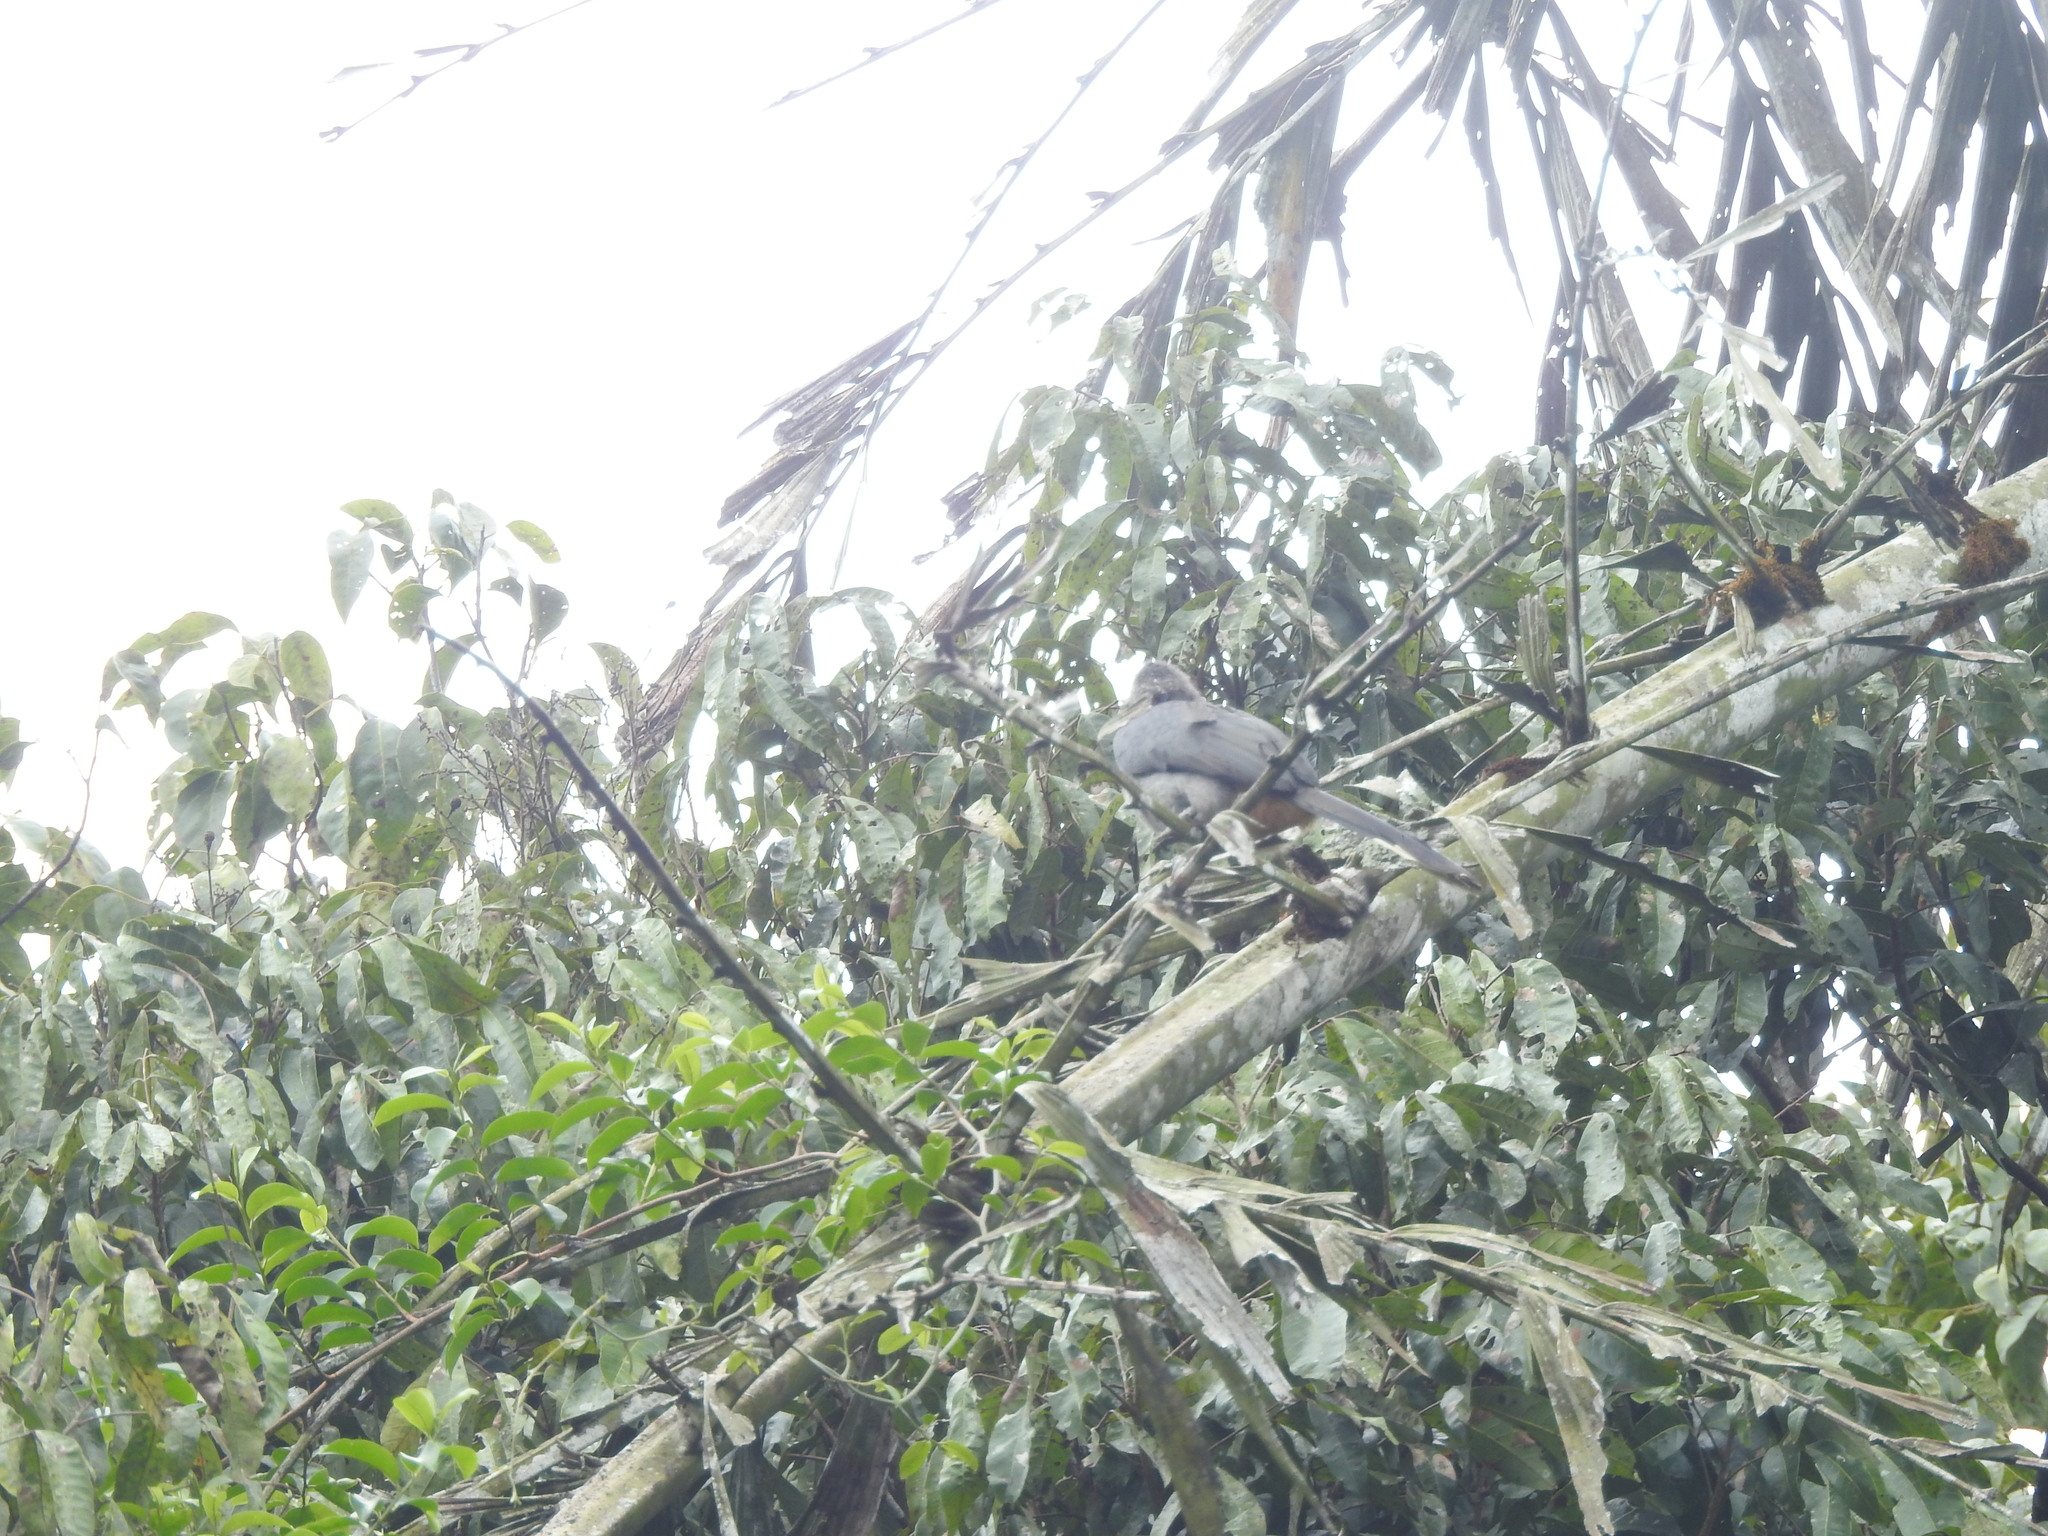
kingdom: Animalia
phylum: Chordata
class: Aves
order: Bucerotiformes
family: Bucerotidae
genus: Ocyceros
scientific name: Ocyceros griseus
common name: Malabar grey hornbill
